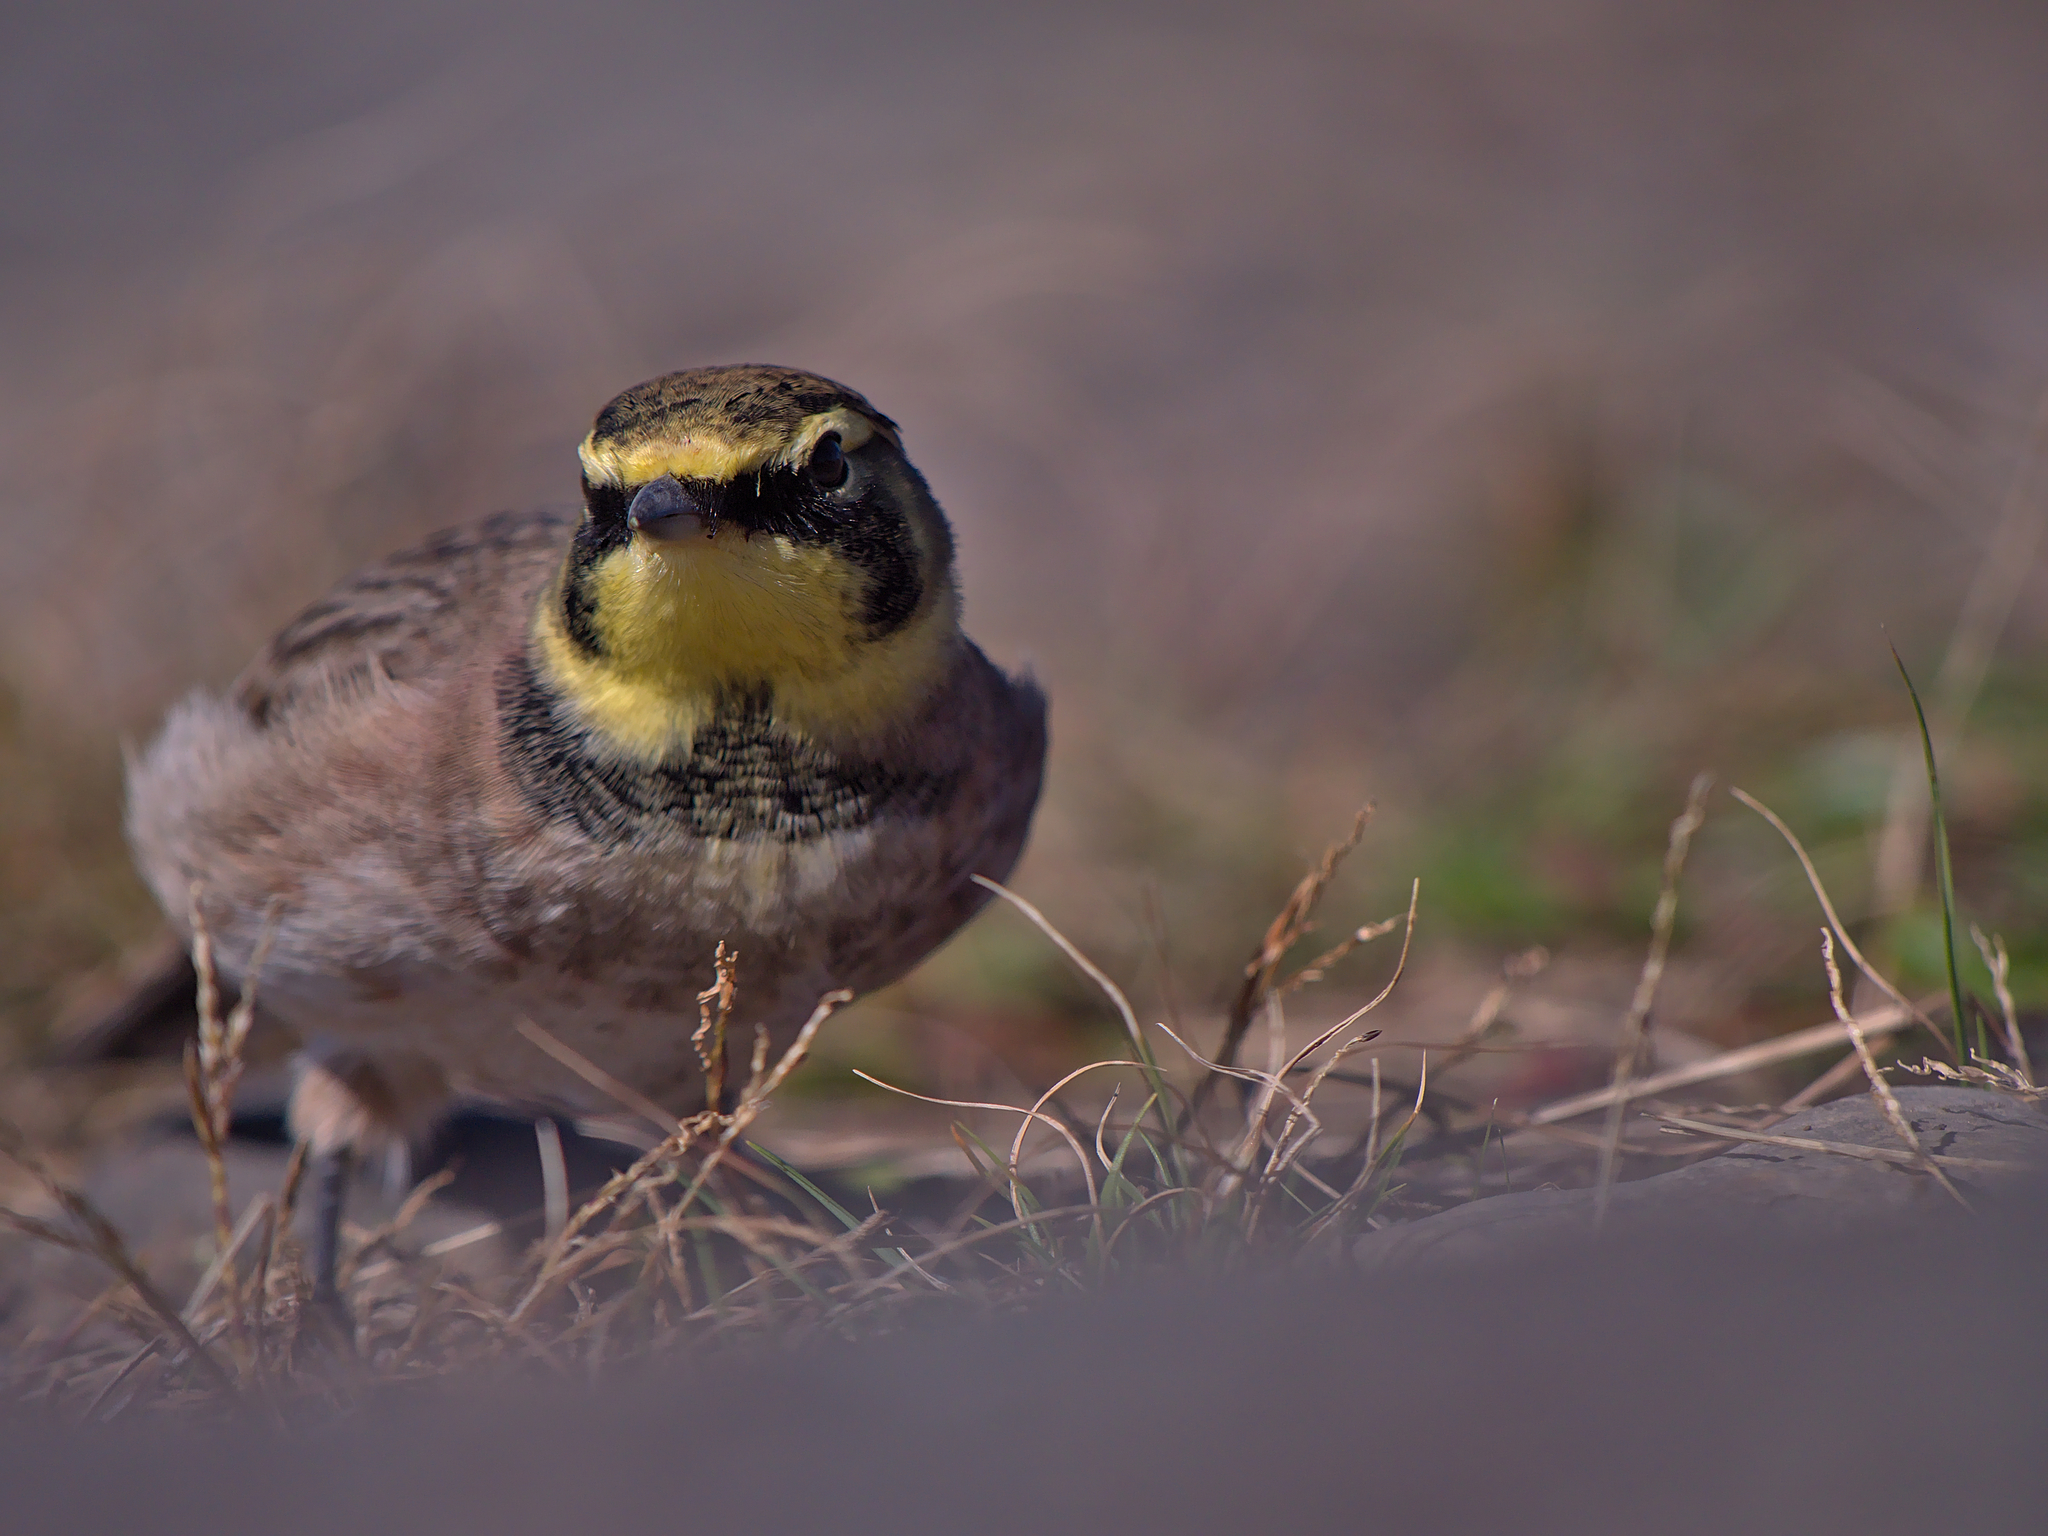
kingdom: Animalia
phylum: Chordata
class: Aves
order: Passeriformes
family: Alaudidae
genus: Eremophila
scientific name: Eremophila alpestris
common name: Horned lark
